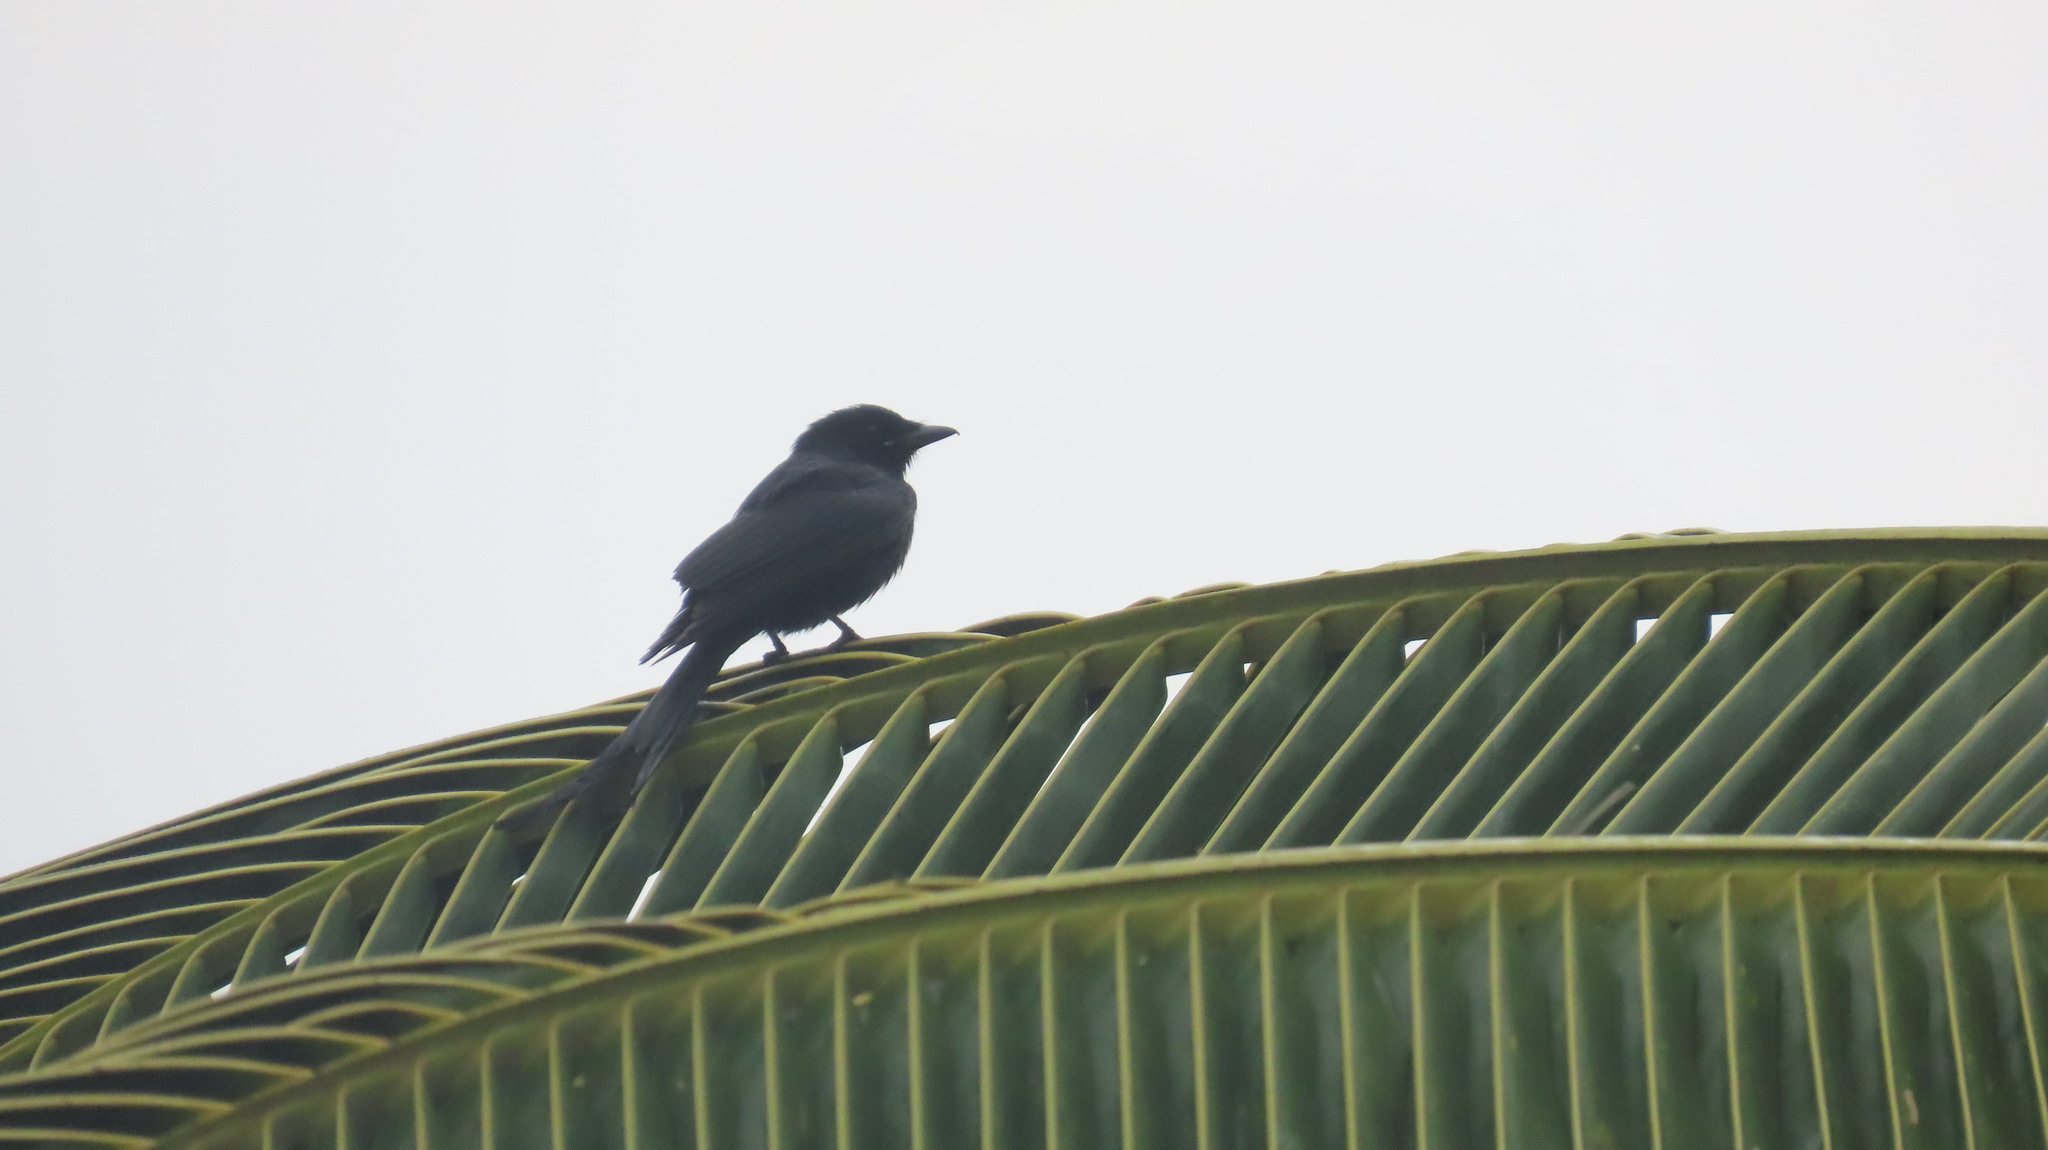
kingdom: Animalia
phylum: Chordata
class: Aves
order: Passeriformes
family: Dicruridae
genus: Dicrurus
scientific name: Dicrurus macrocercus
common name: Black drongo
